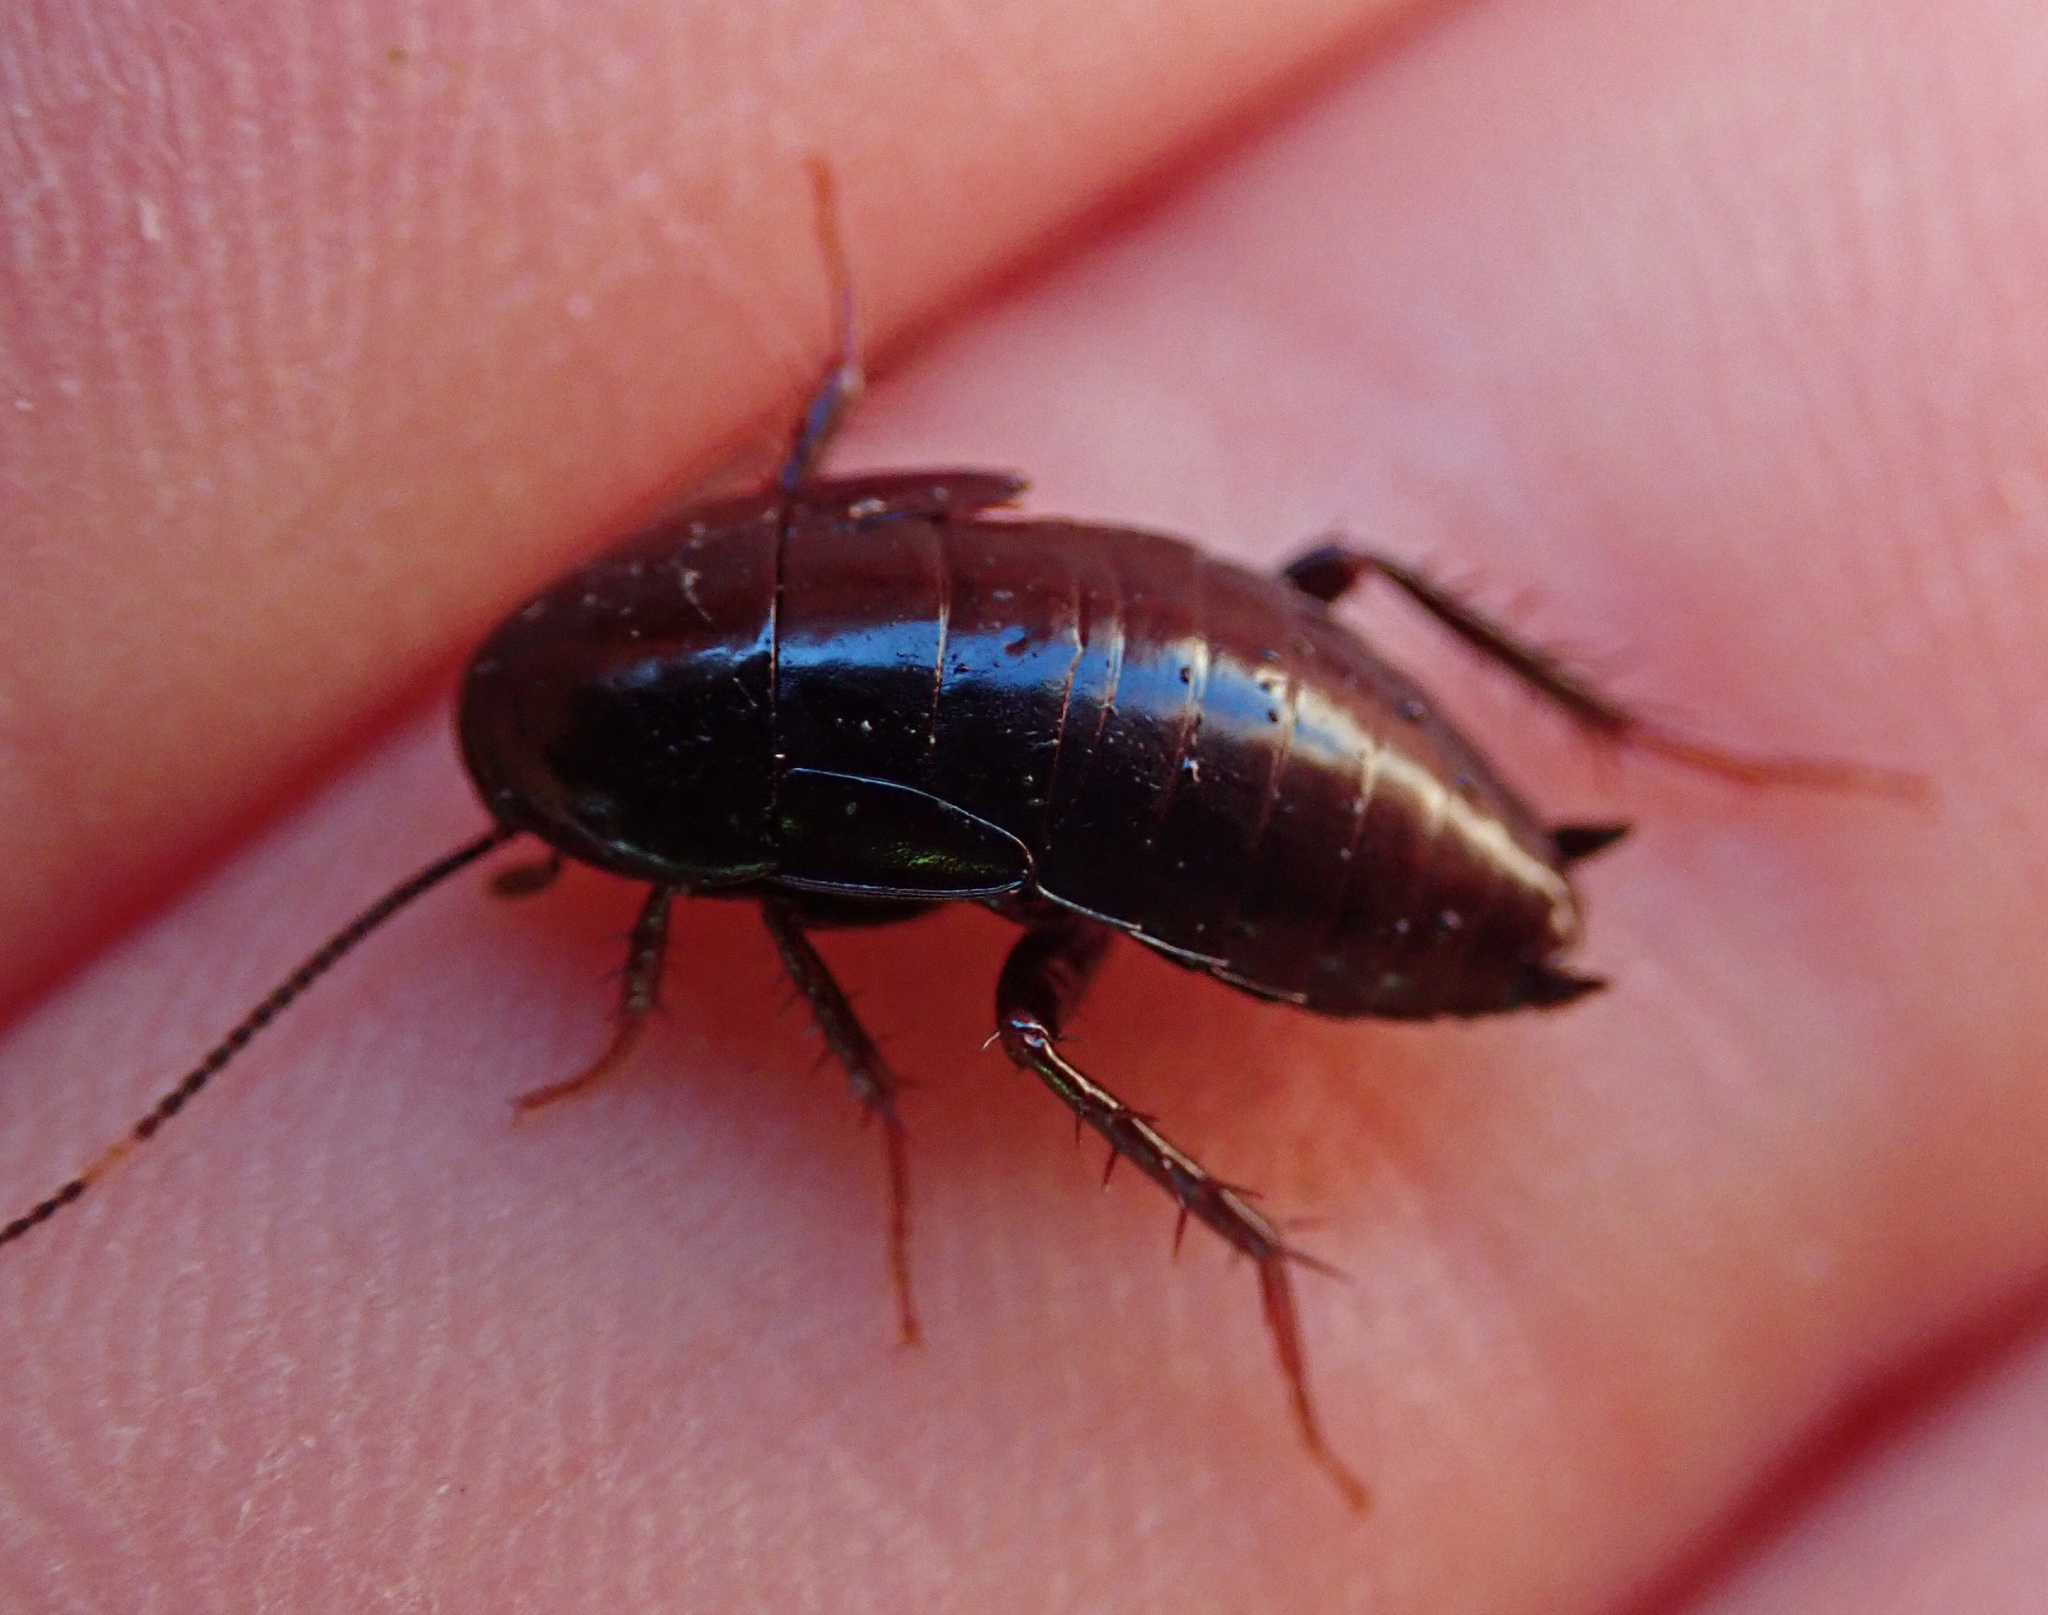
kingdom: Animalia
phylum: Arthropoda
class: Insecta
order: Blattodea
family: Tryonicidae
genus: Tryonicus
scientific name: Tryonicus parvus
